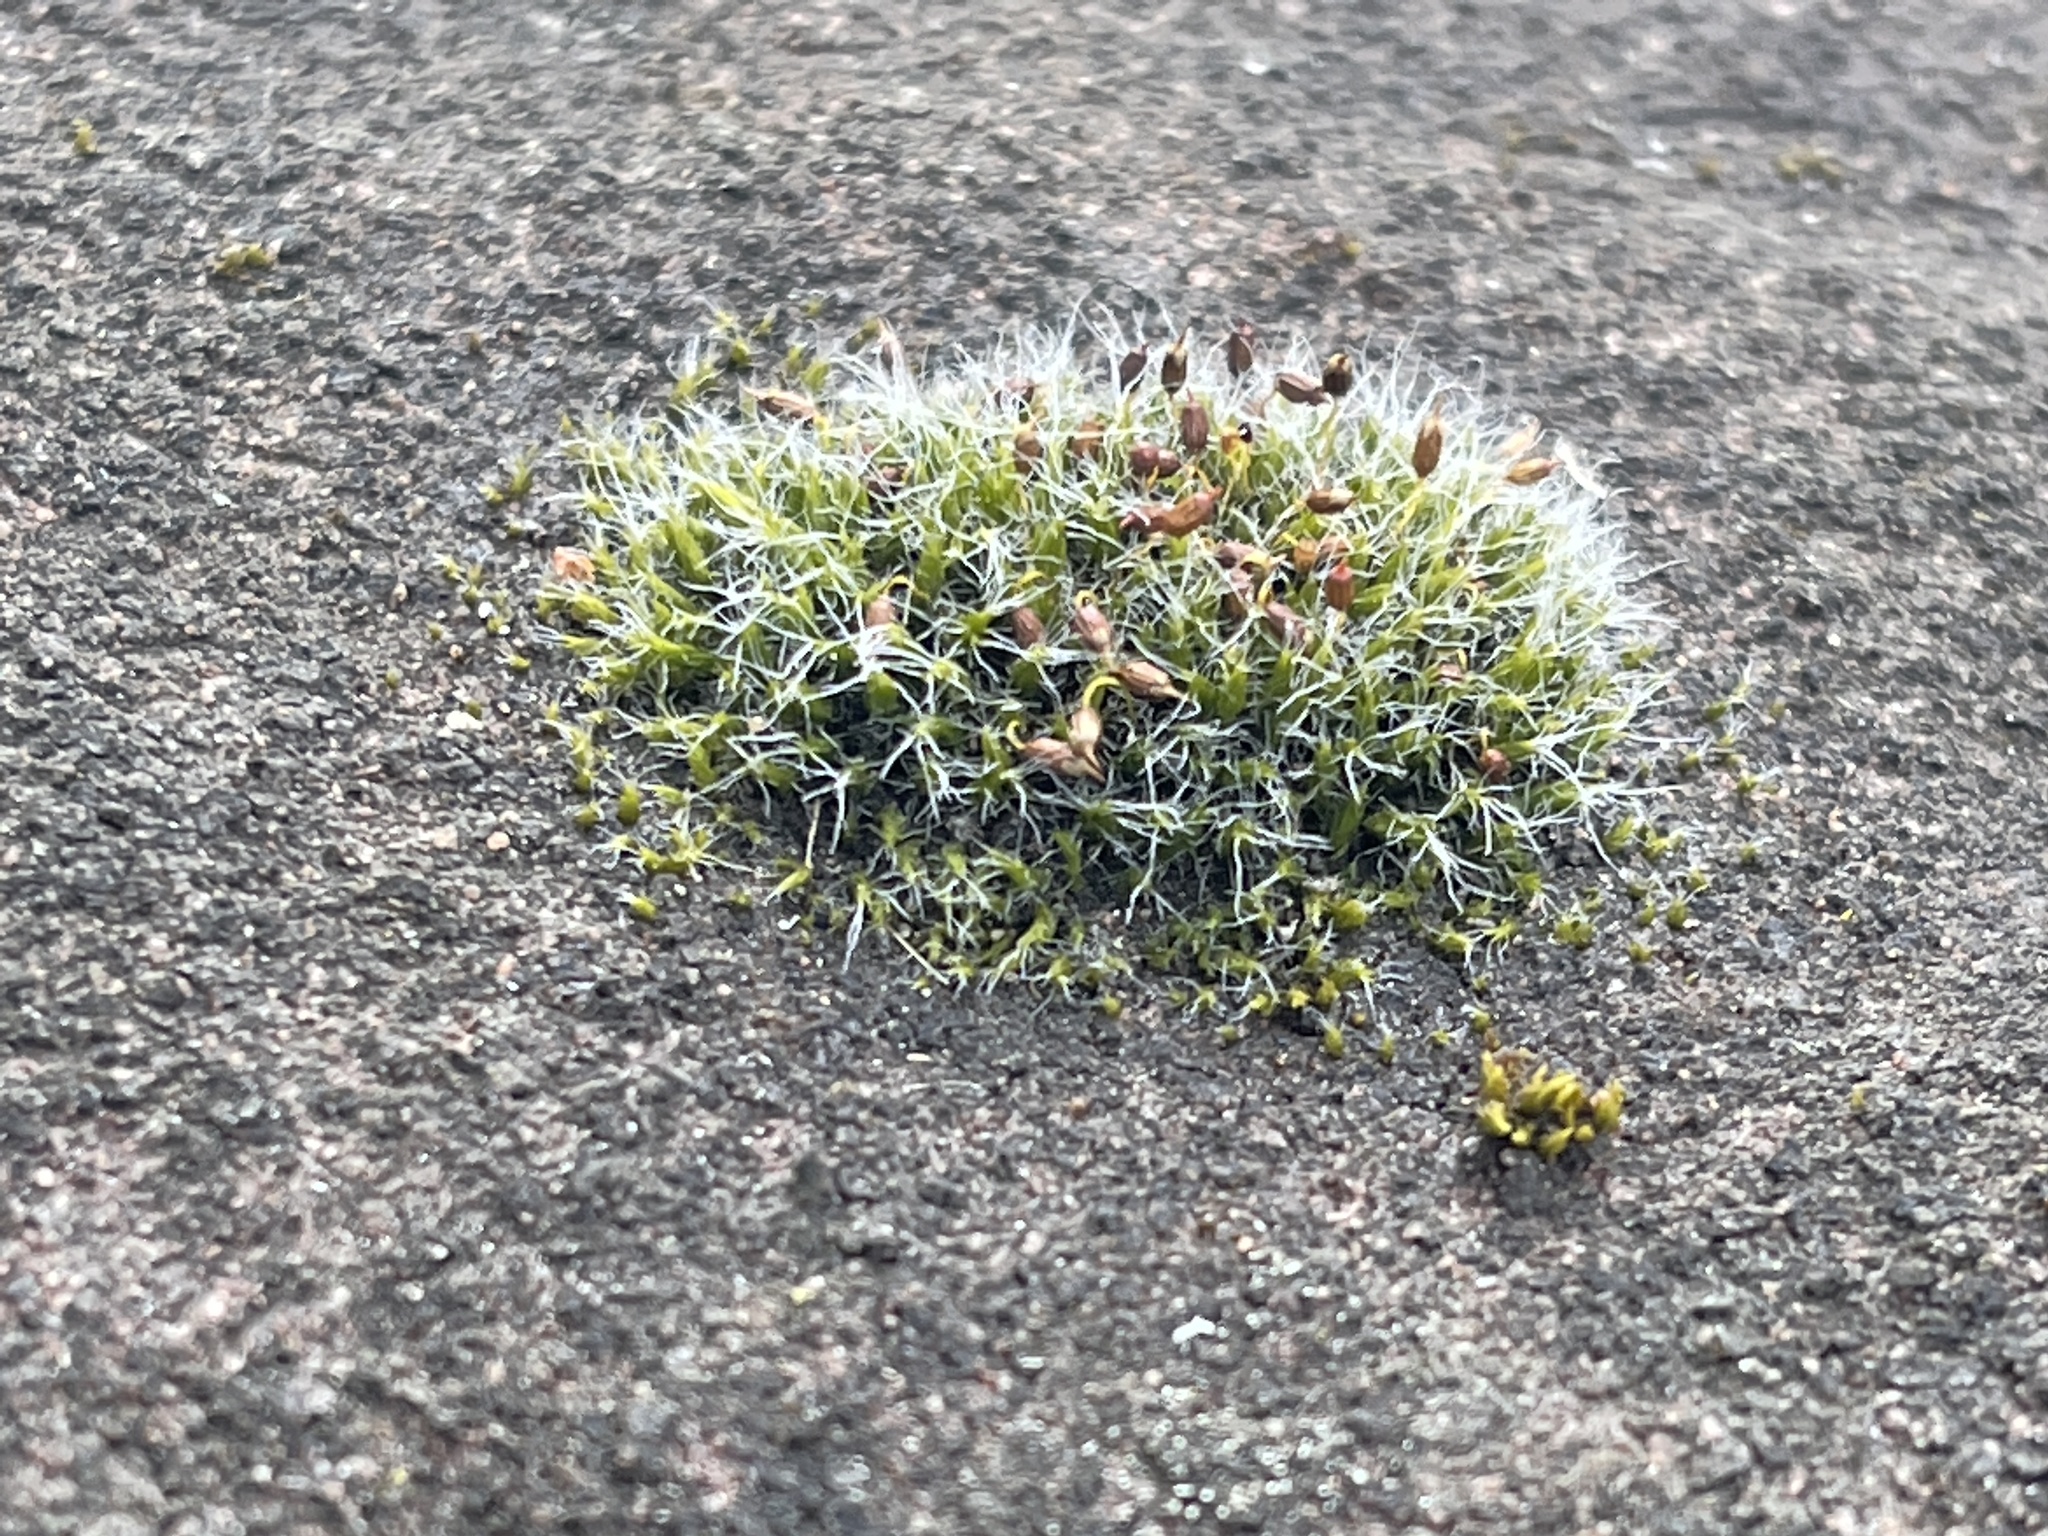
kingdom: Plantae
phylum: Bryophyta
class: Bryopsida
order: Grimmiales
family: Grimmiaceae
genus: Grimmia
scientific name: Grimmia pulvinata
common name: Grey-cushioned grimmia
